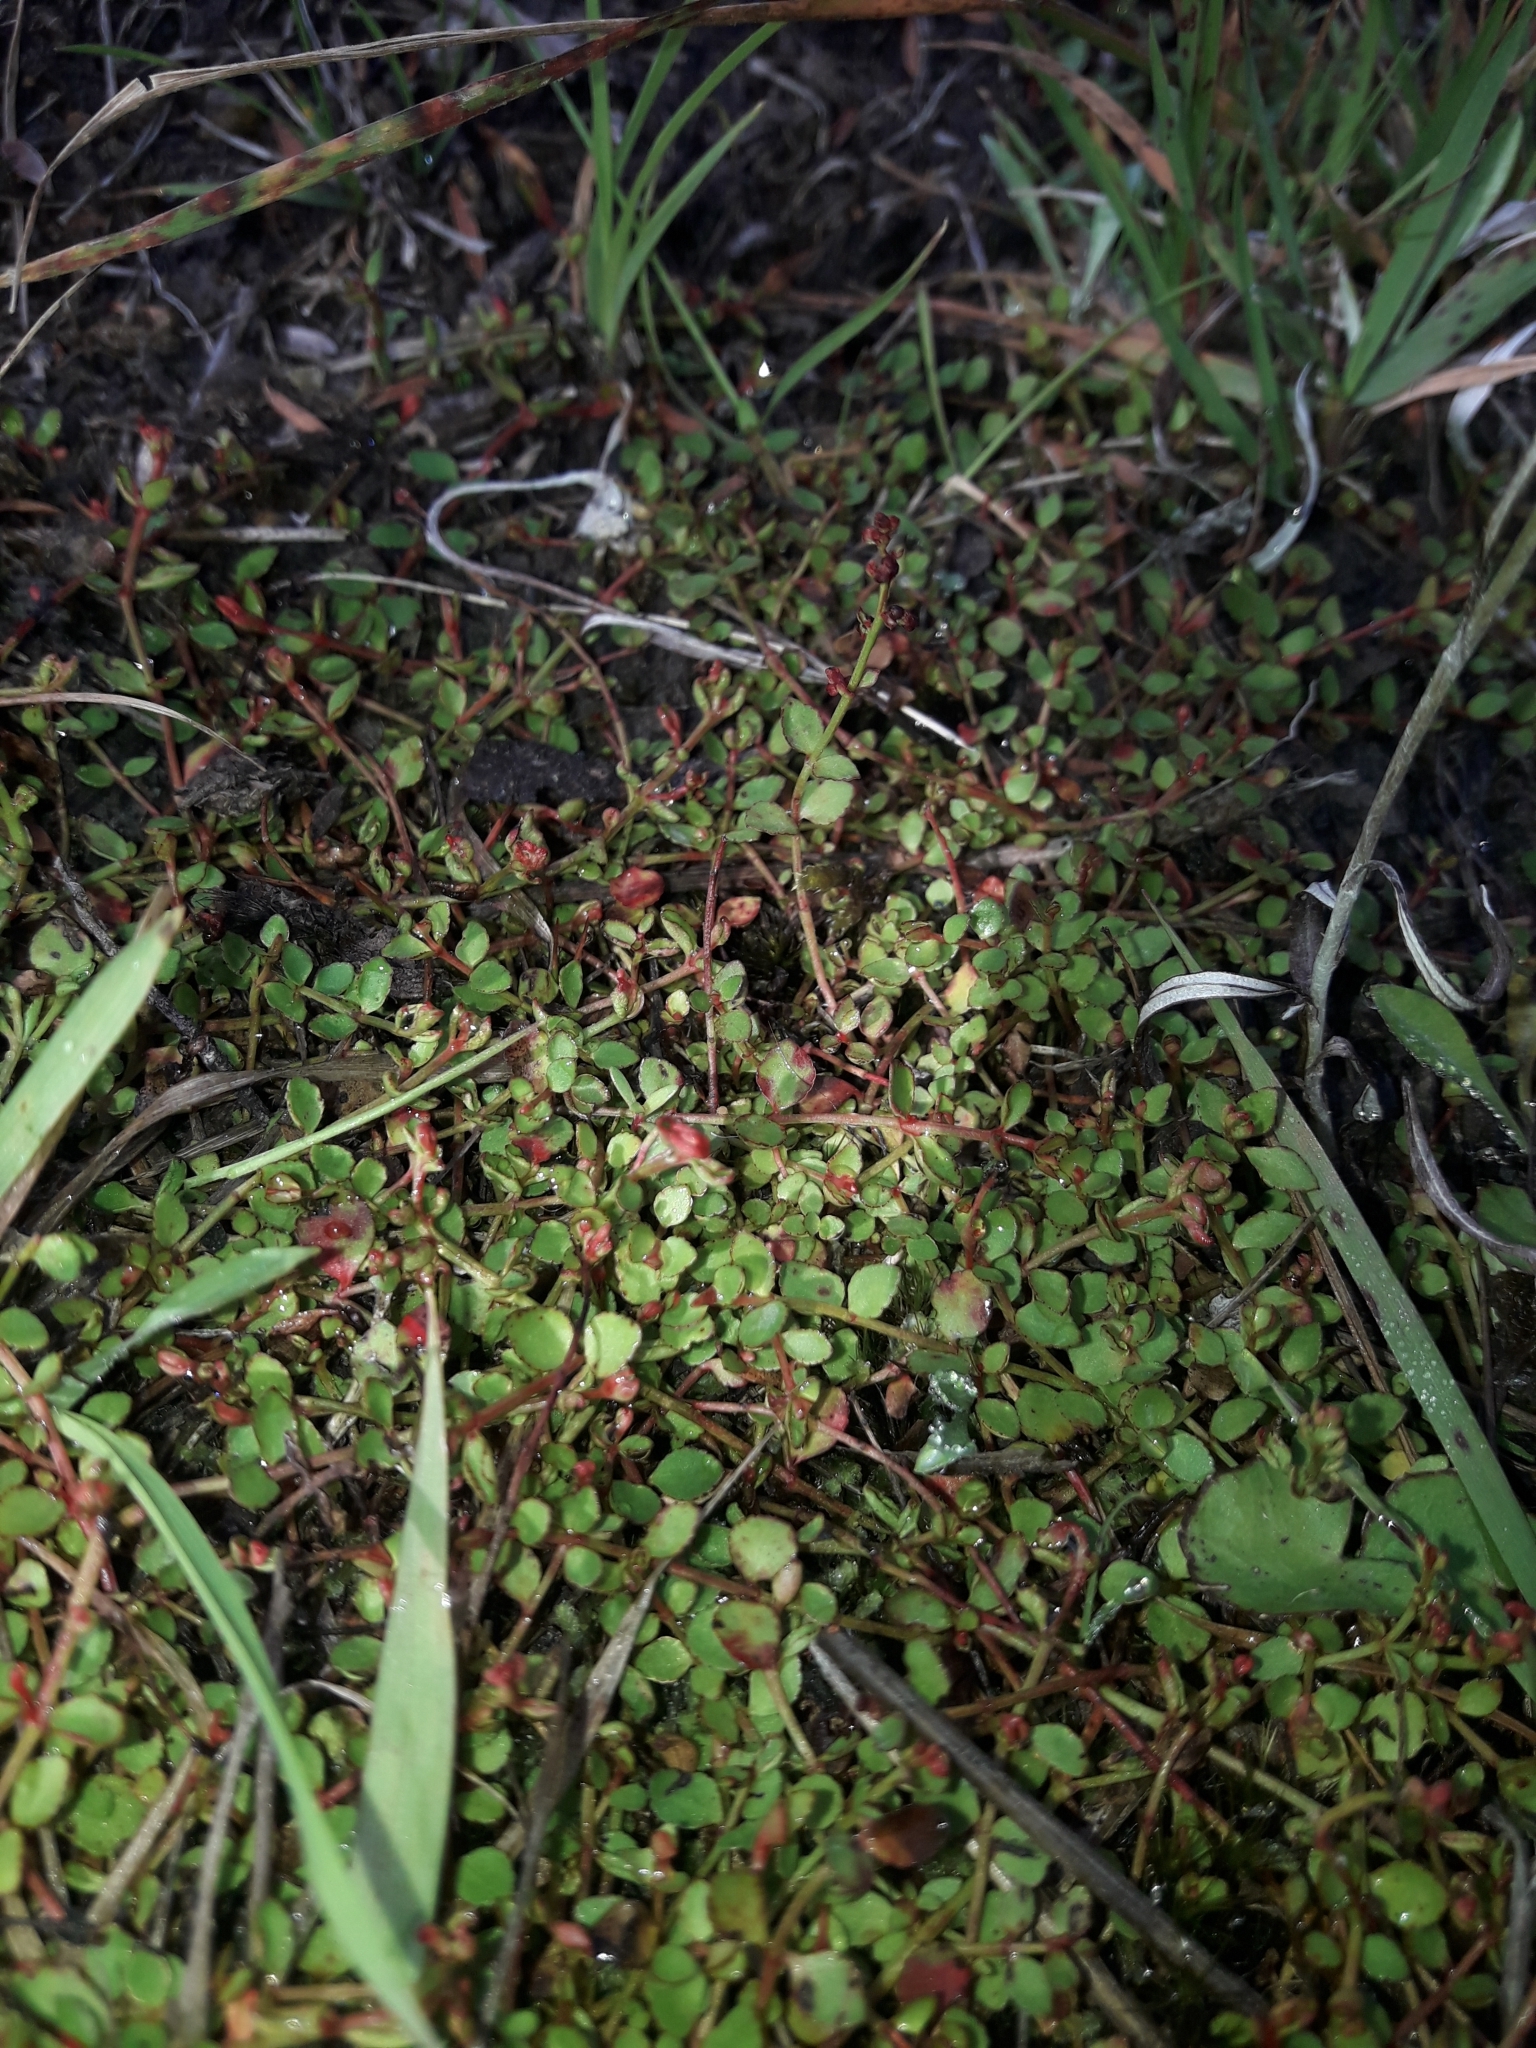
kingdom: Plantae
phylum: Tracheophyta
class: Magnoliopsida
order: Saxifragales
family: Haloragaceae
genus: Gonocarpus
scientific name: Gonocarpus micranthus
